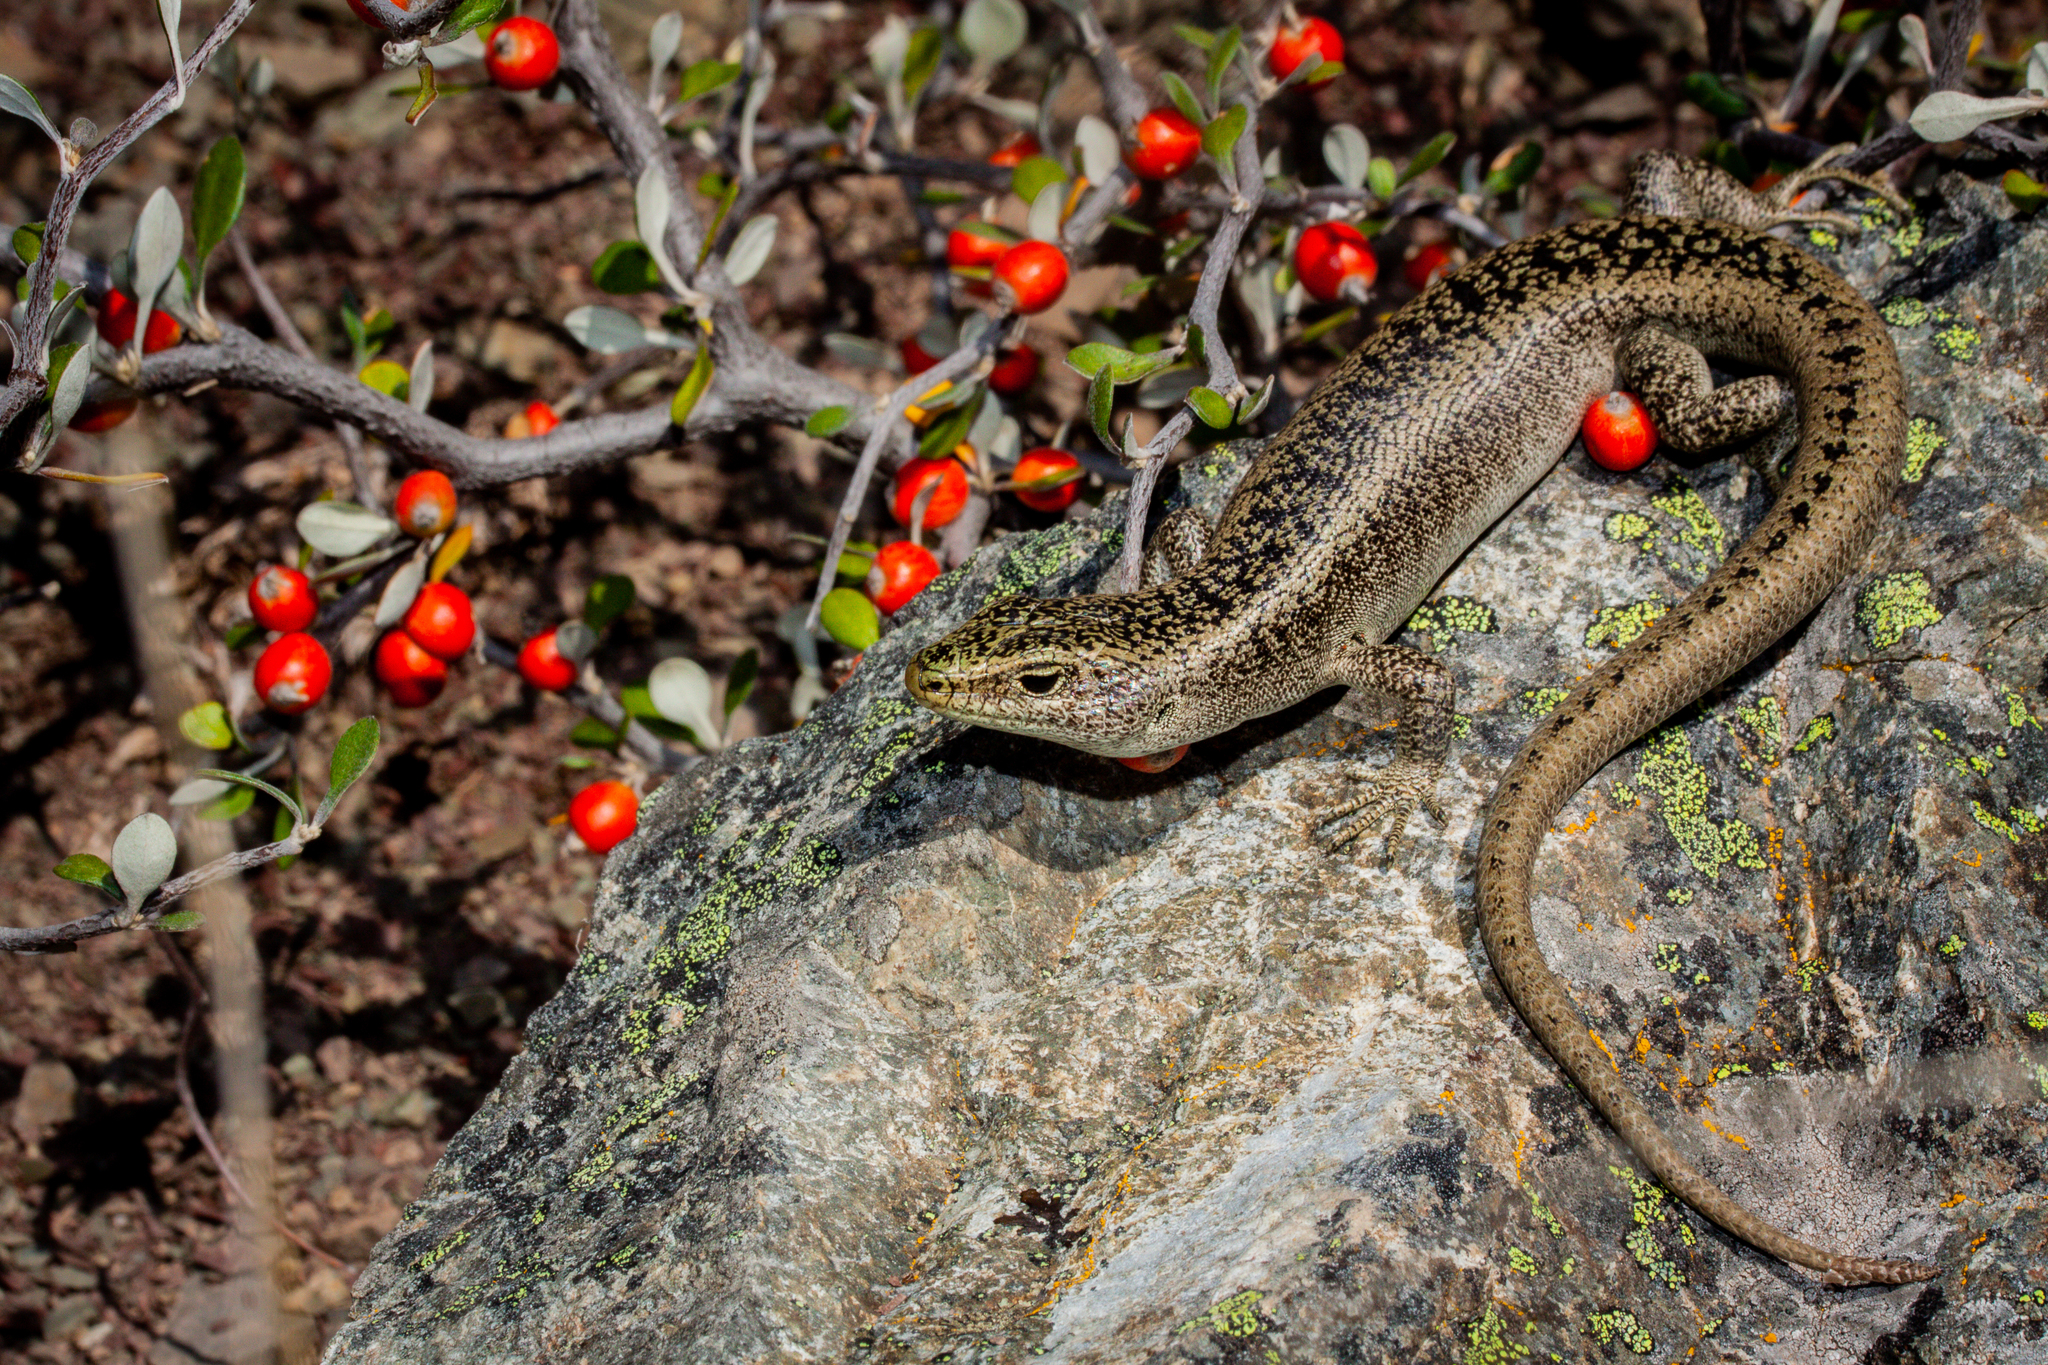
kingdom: Animalia
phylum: Chordata
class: Squamata
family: Scincidae
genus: Oligosoma
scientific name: Oligosoma waimatense
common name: Scree skink
